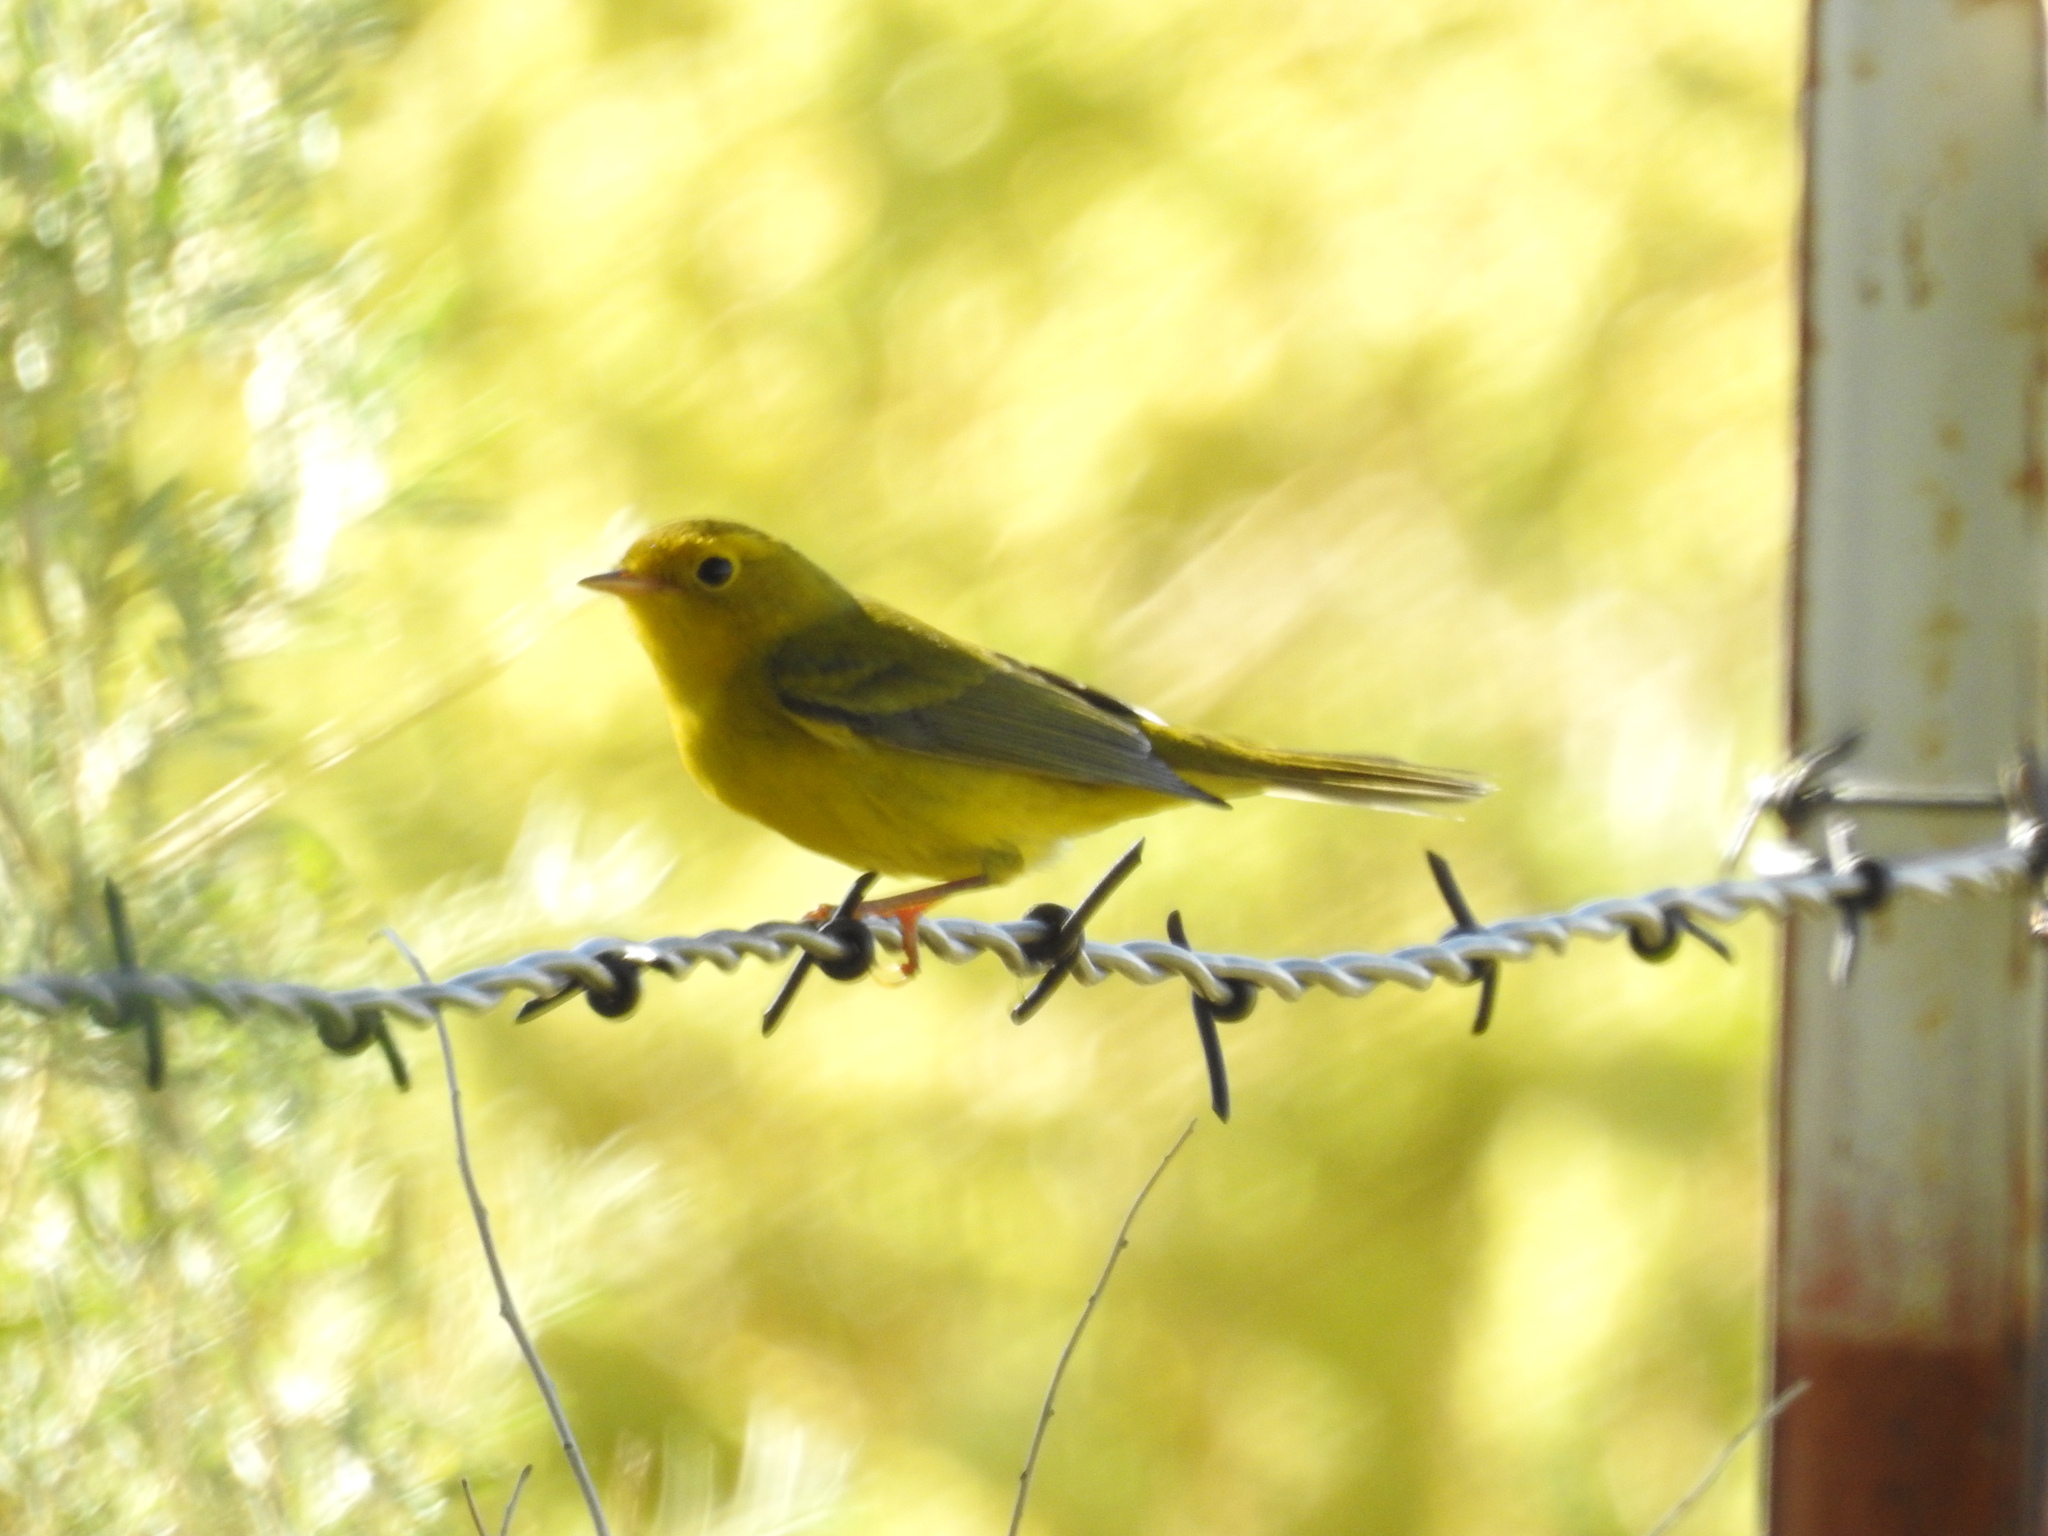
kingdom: Animalia
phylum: Chordata
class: Aves
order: Passeriformes
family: Parulidae
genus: Cardellina
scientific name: Cardellina pusilla
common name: Wilson's warbler
